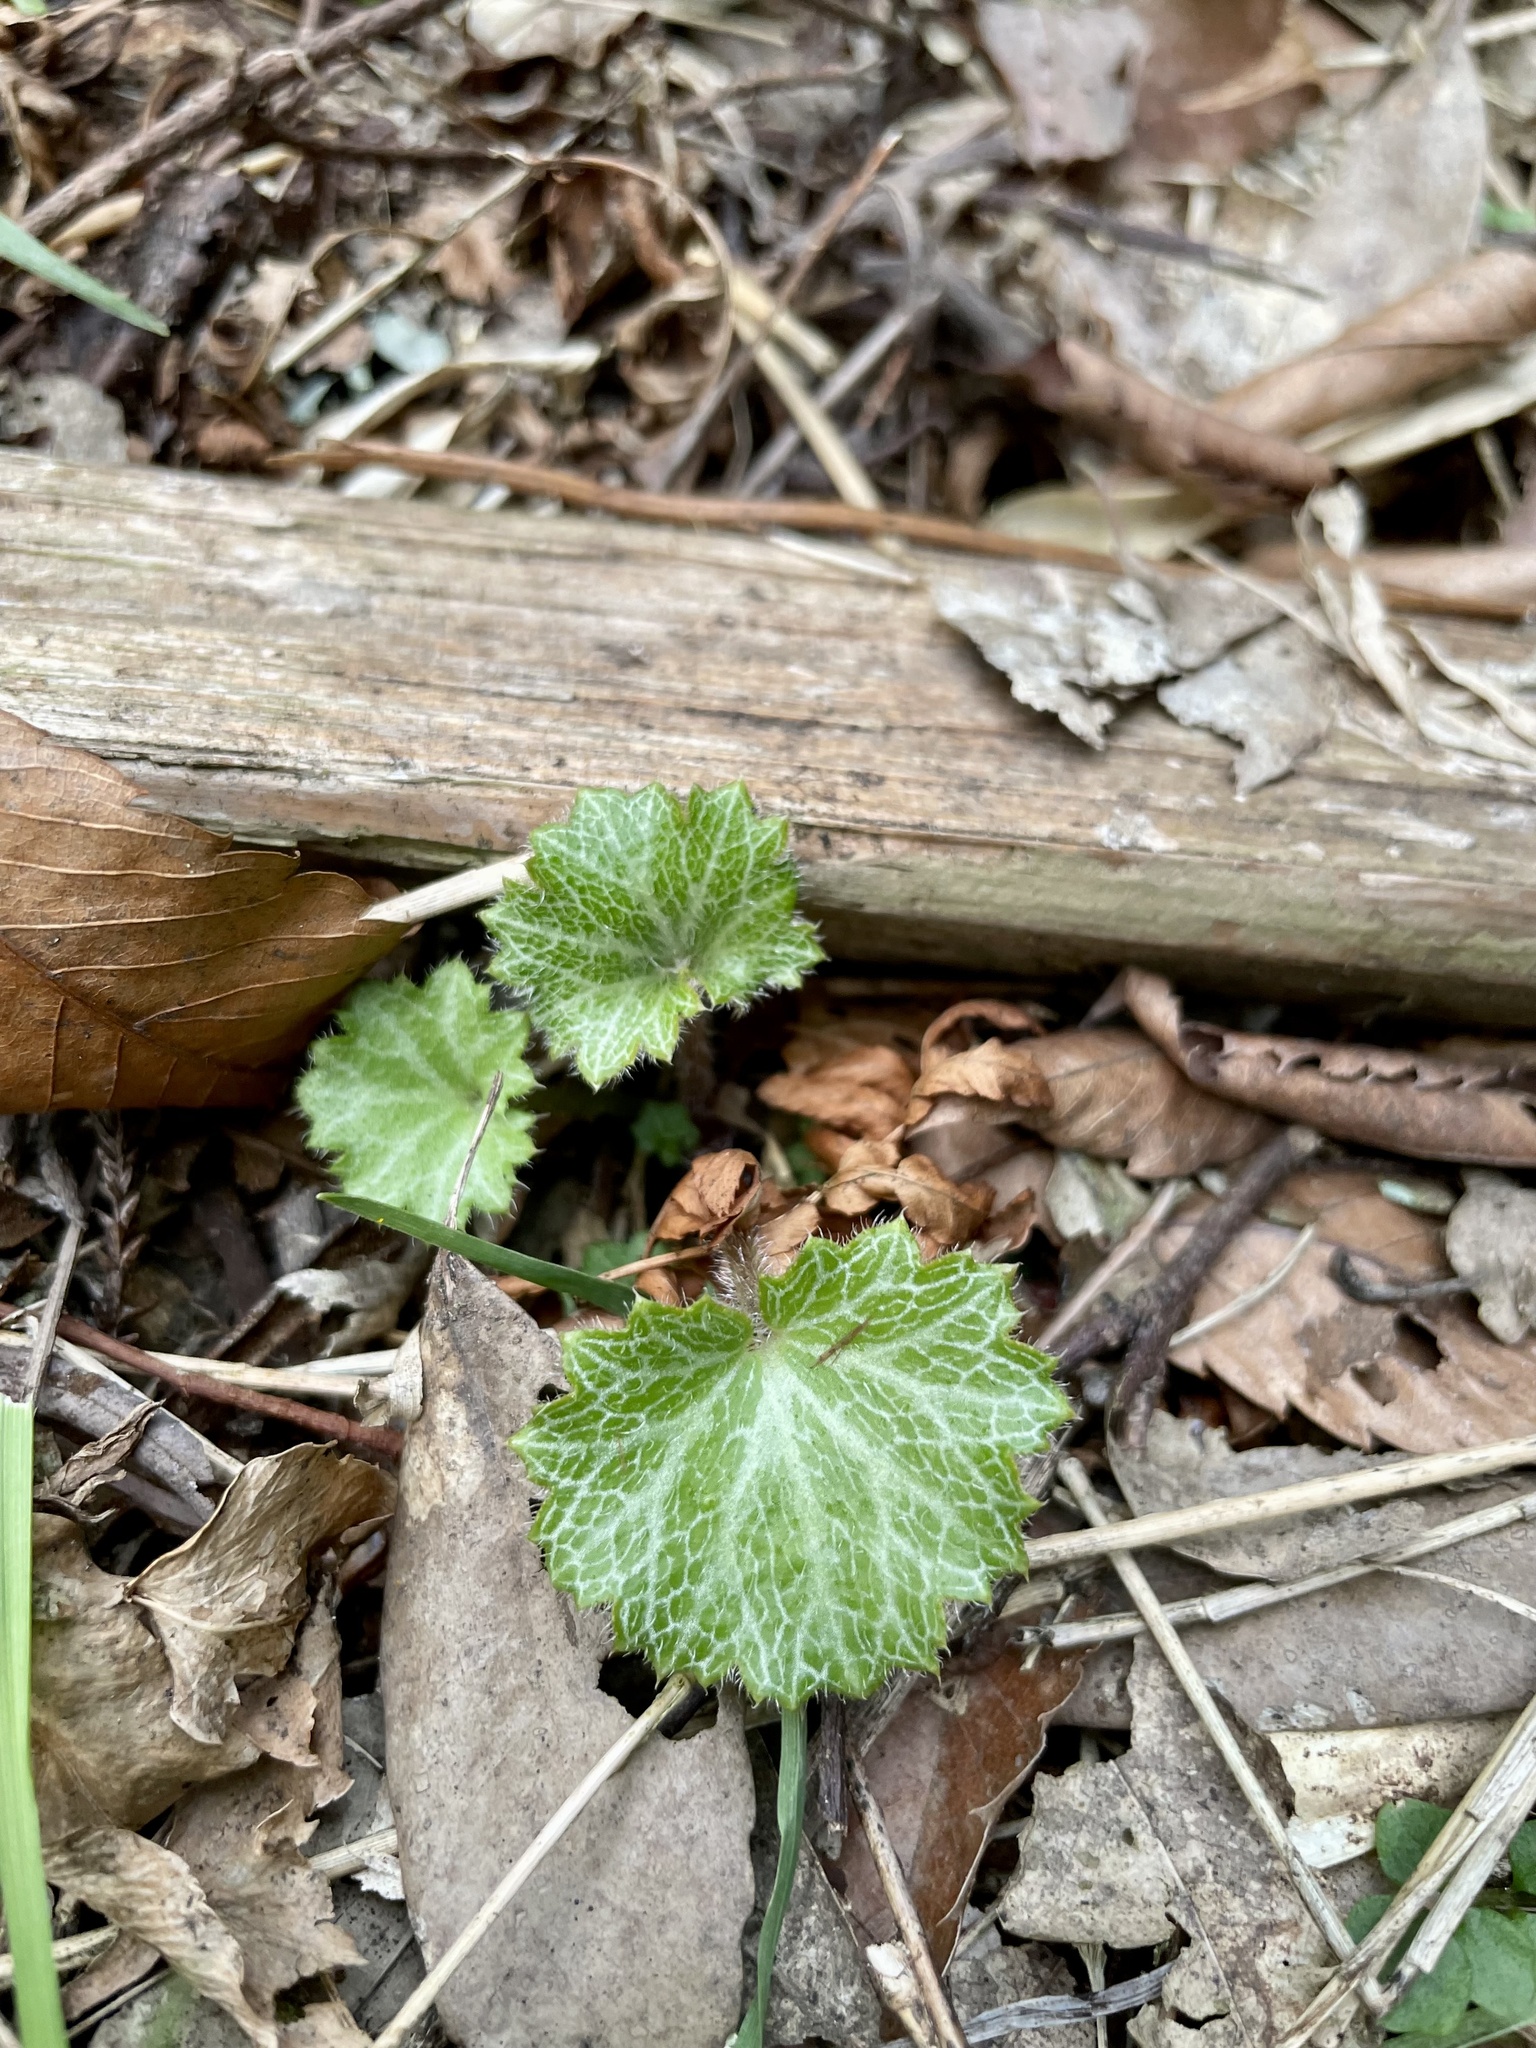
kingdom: Plantae
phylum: Tracheophyta
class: Magnoliopsida
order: Saxifragales
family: Saxifragaceae
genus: Saxifraga
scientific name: Saxifraga stolonifera
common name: Creeping saxifrage
